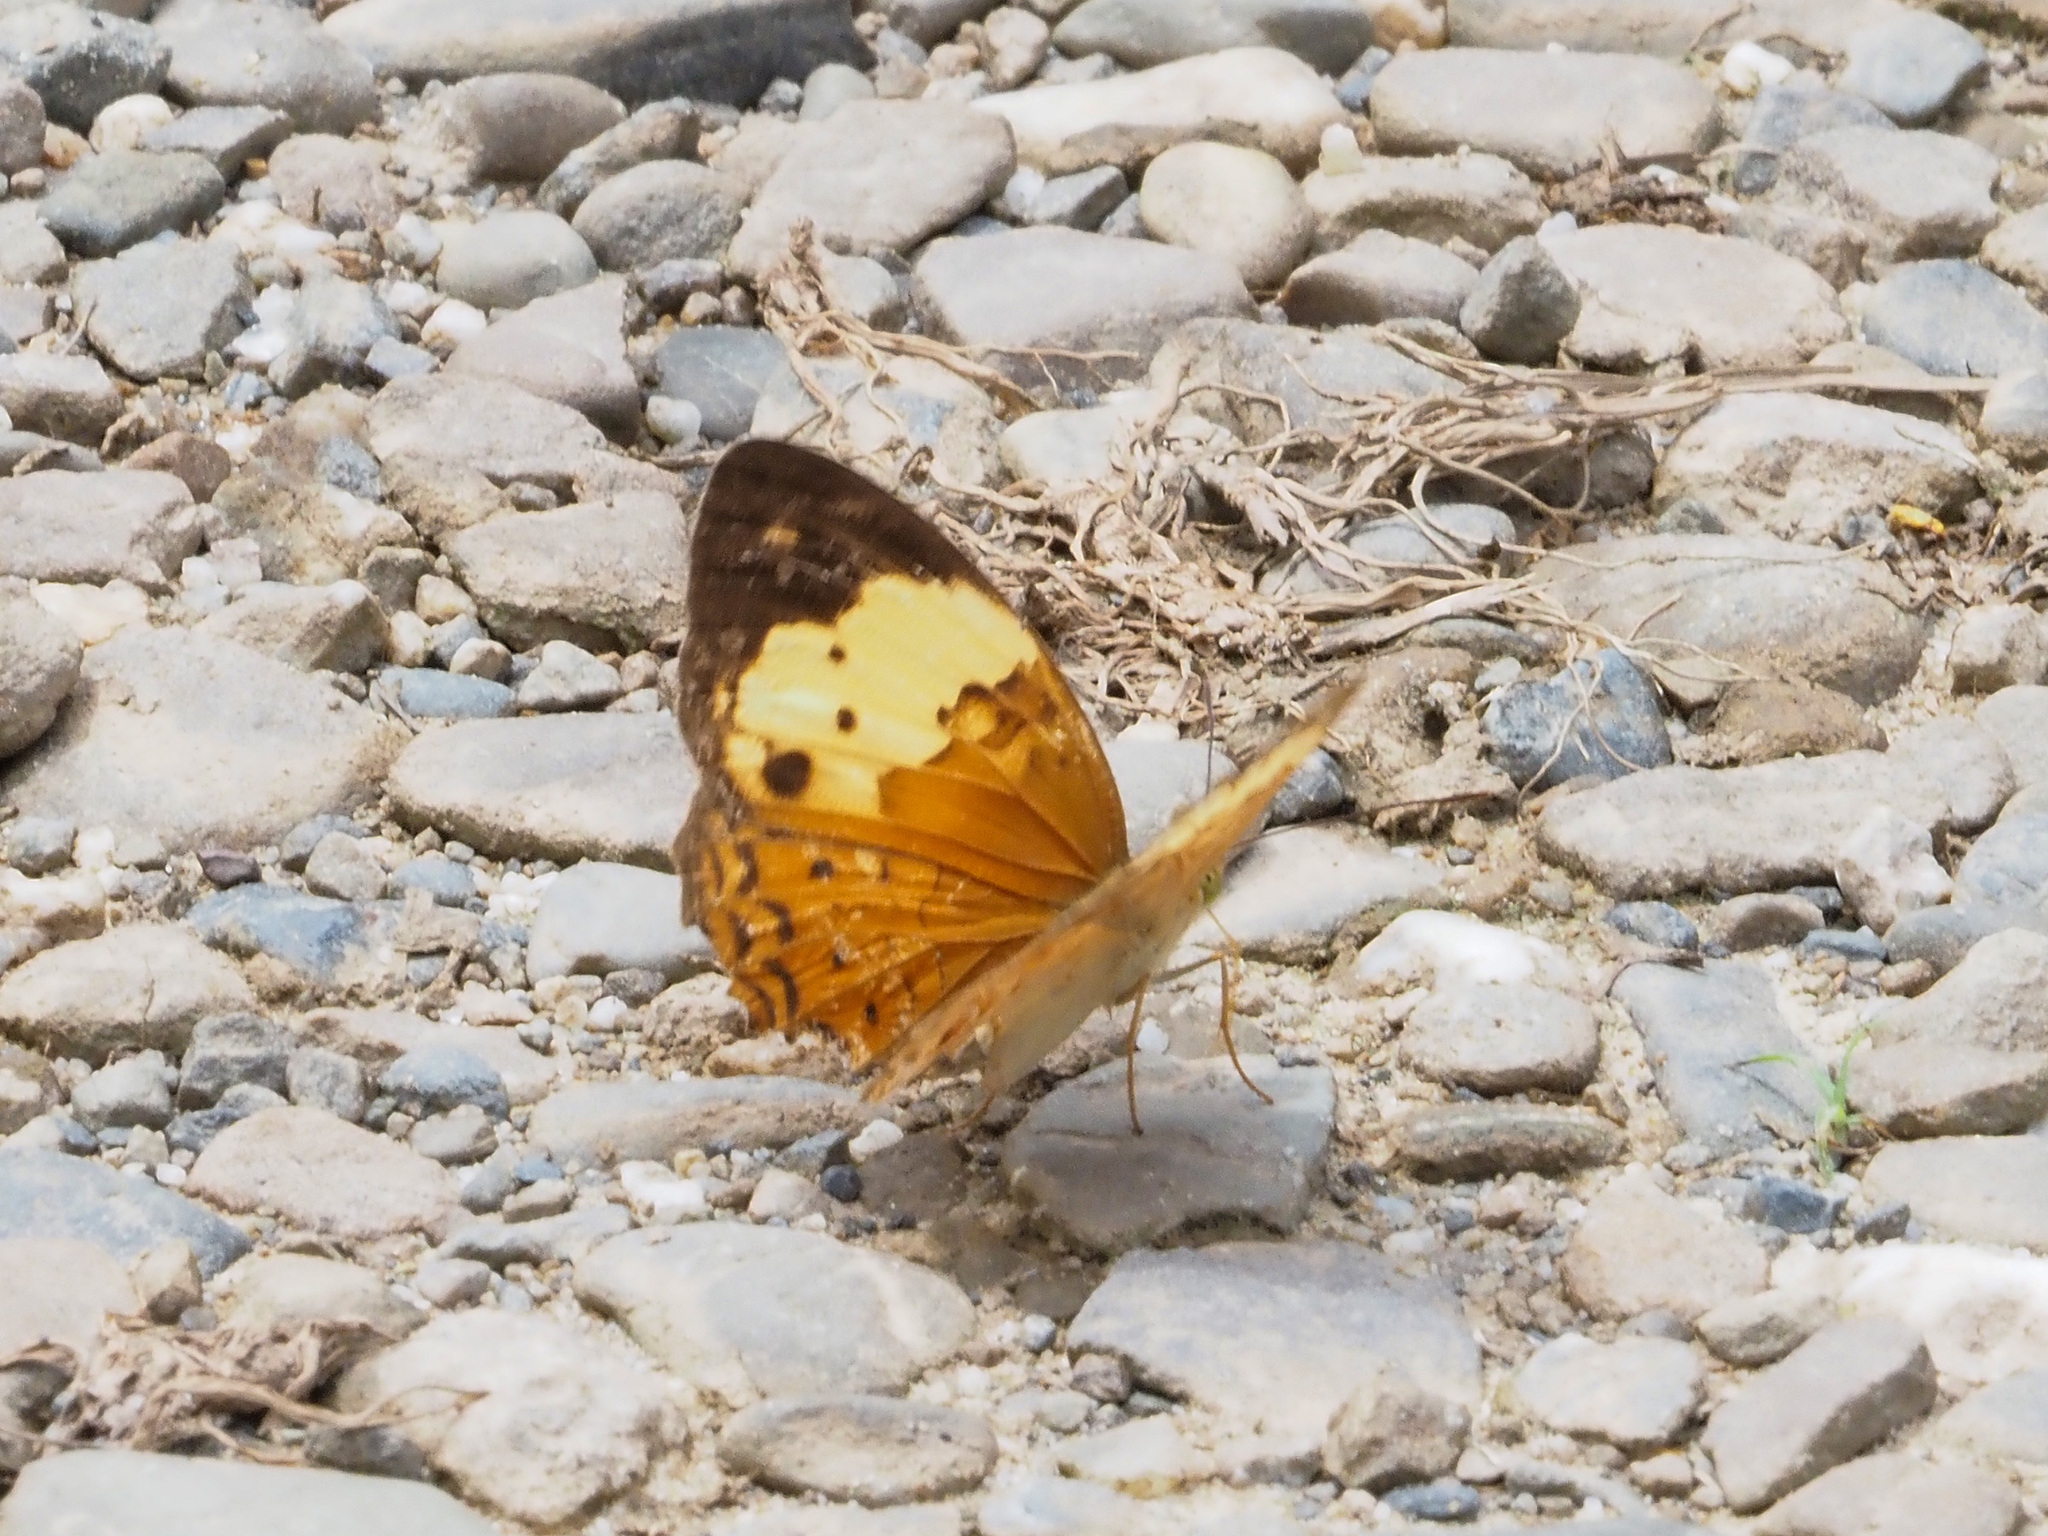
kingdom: Animalia
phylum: Arthropoda
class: Insecta
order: Lepidoptera
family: Nymphalidae
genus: Cupha
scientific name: Cupha erymanthis
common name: Rustic
